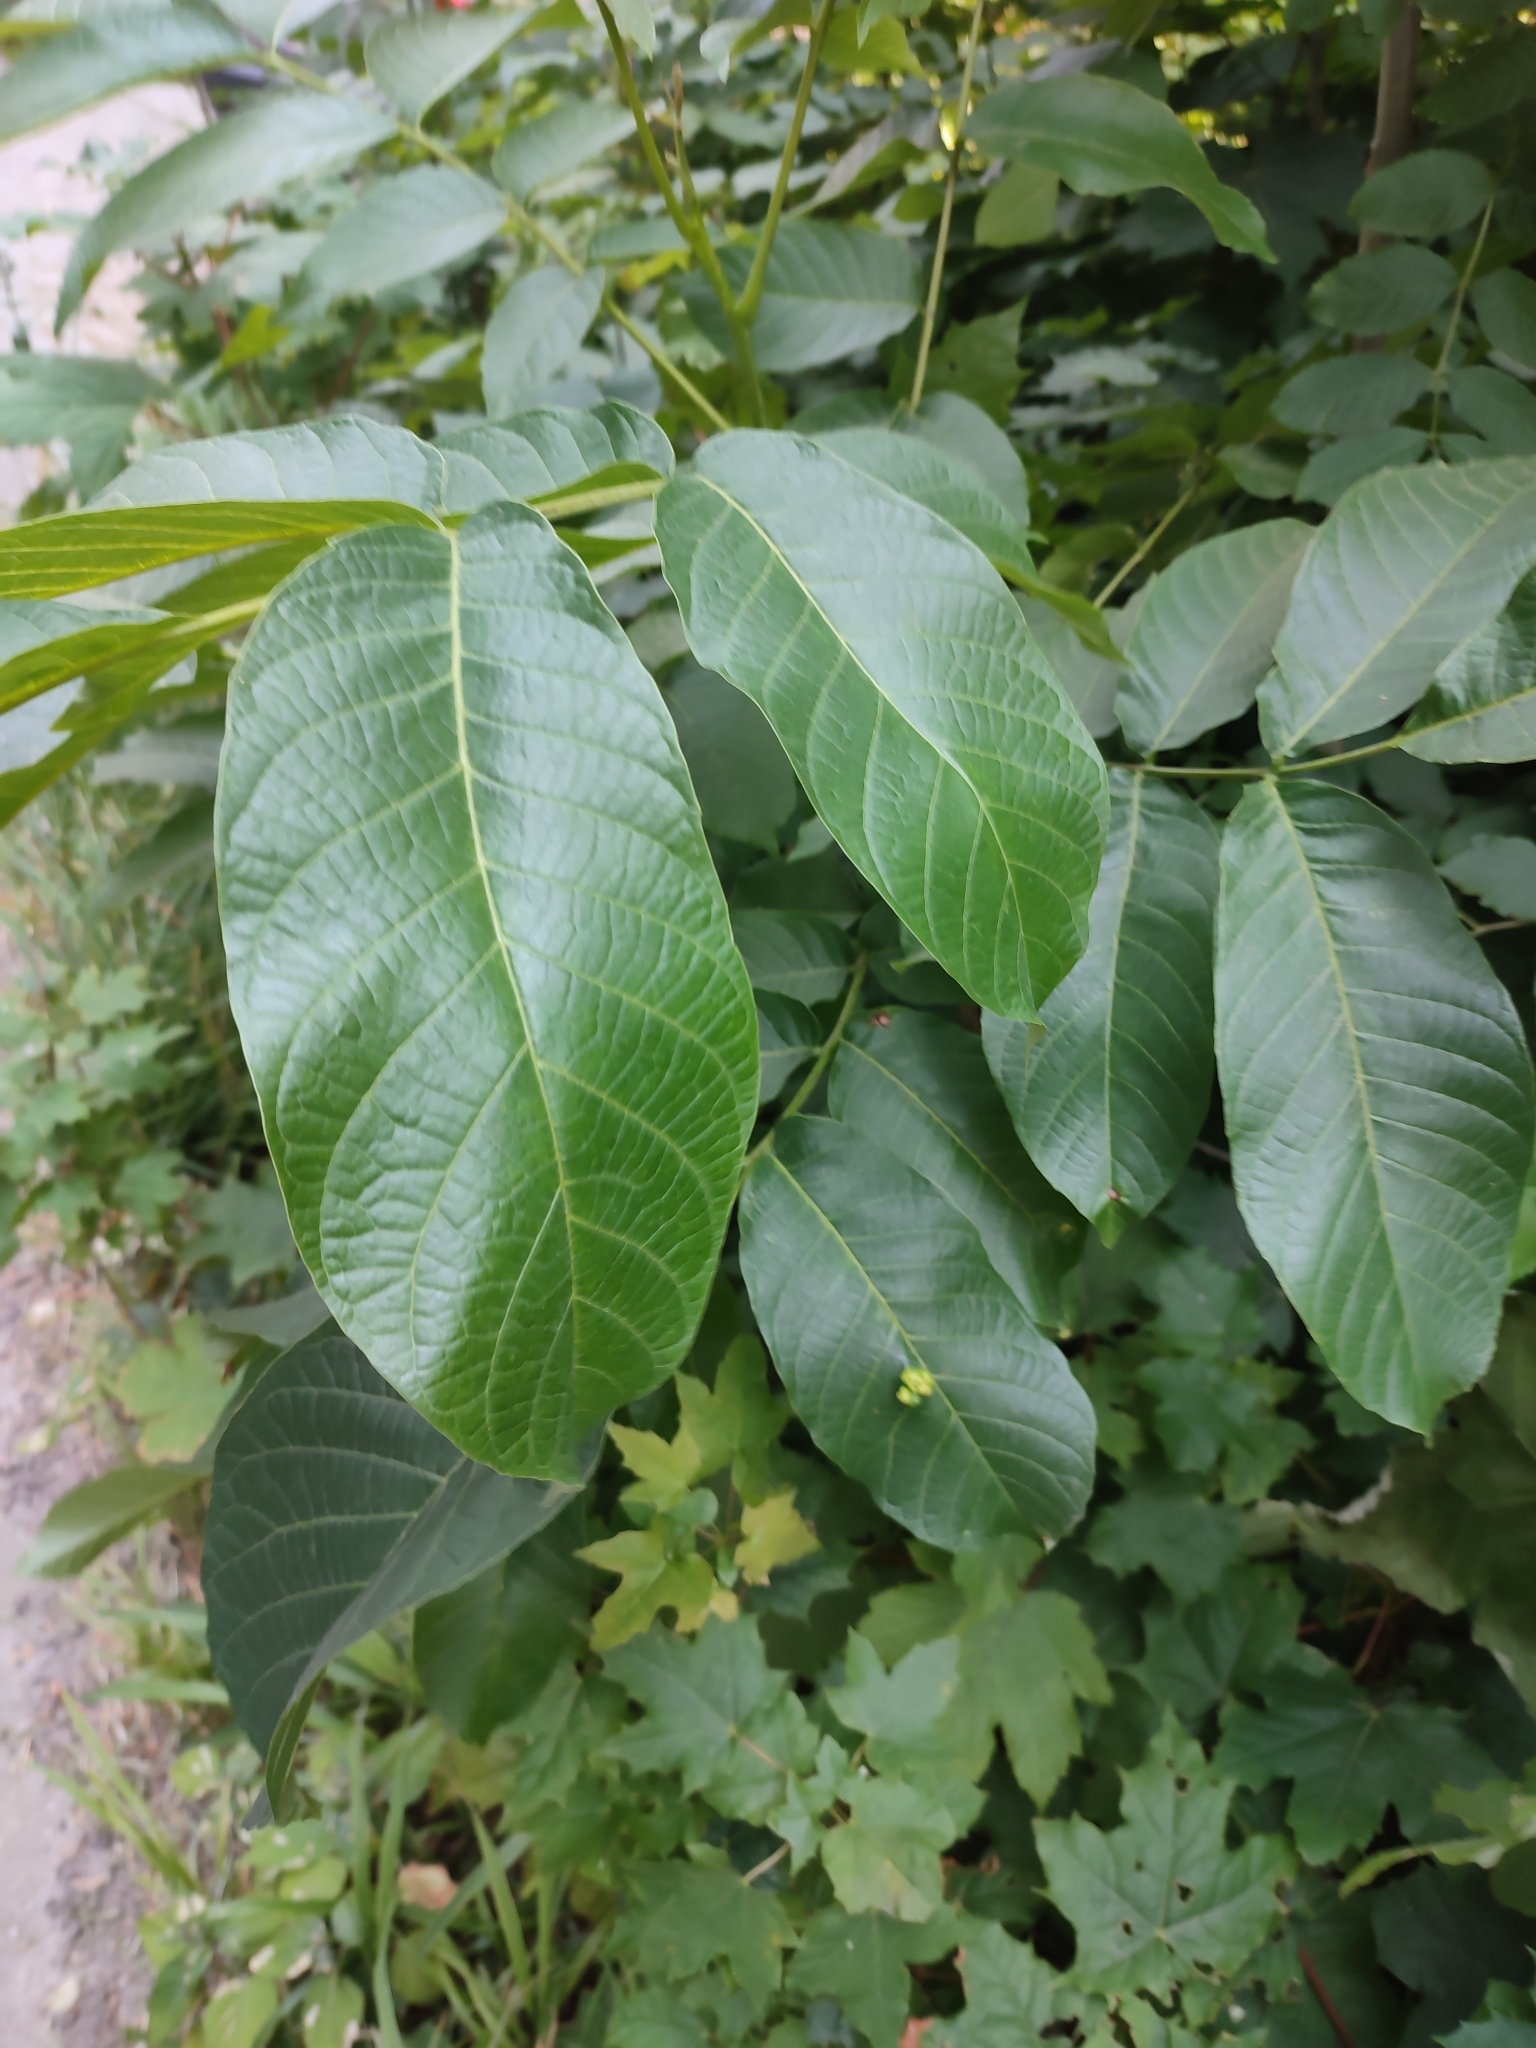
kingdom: Animalia
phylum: Arthropoda
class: Arachnida
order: Trombidiformes
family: Eriophyidae
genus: Aceria
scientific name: Aceria erinea
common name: Persian walnut erineum mite
